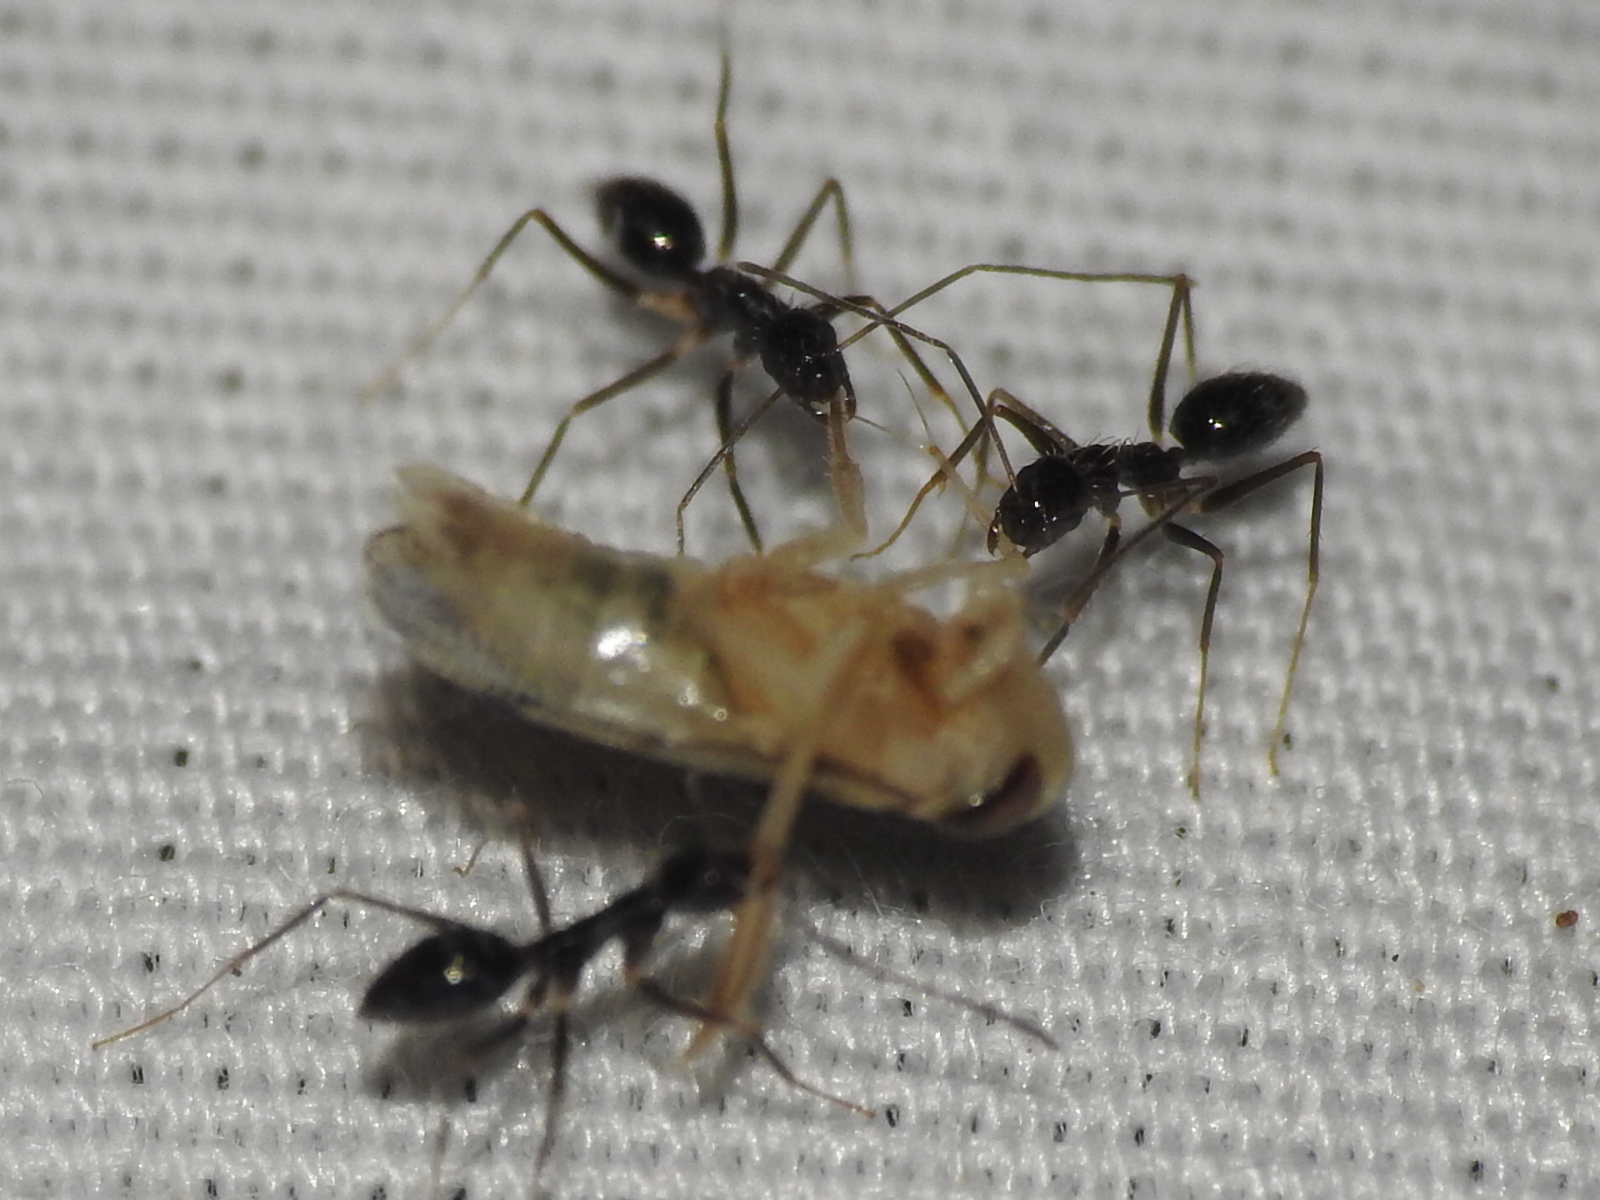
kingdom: Animalia
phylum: Arthropoda
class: Insecta
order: Hymenoptera
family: Formicidae
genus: Paratrechina
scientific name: Paratrechina longicornis
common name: Longhorned crazy ant
